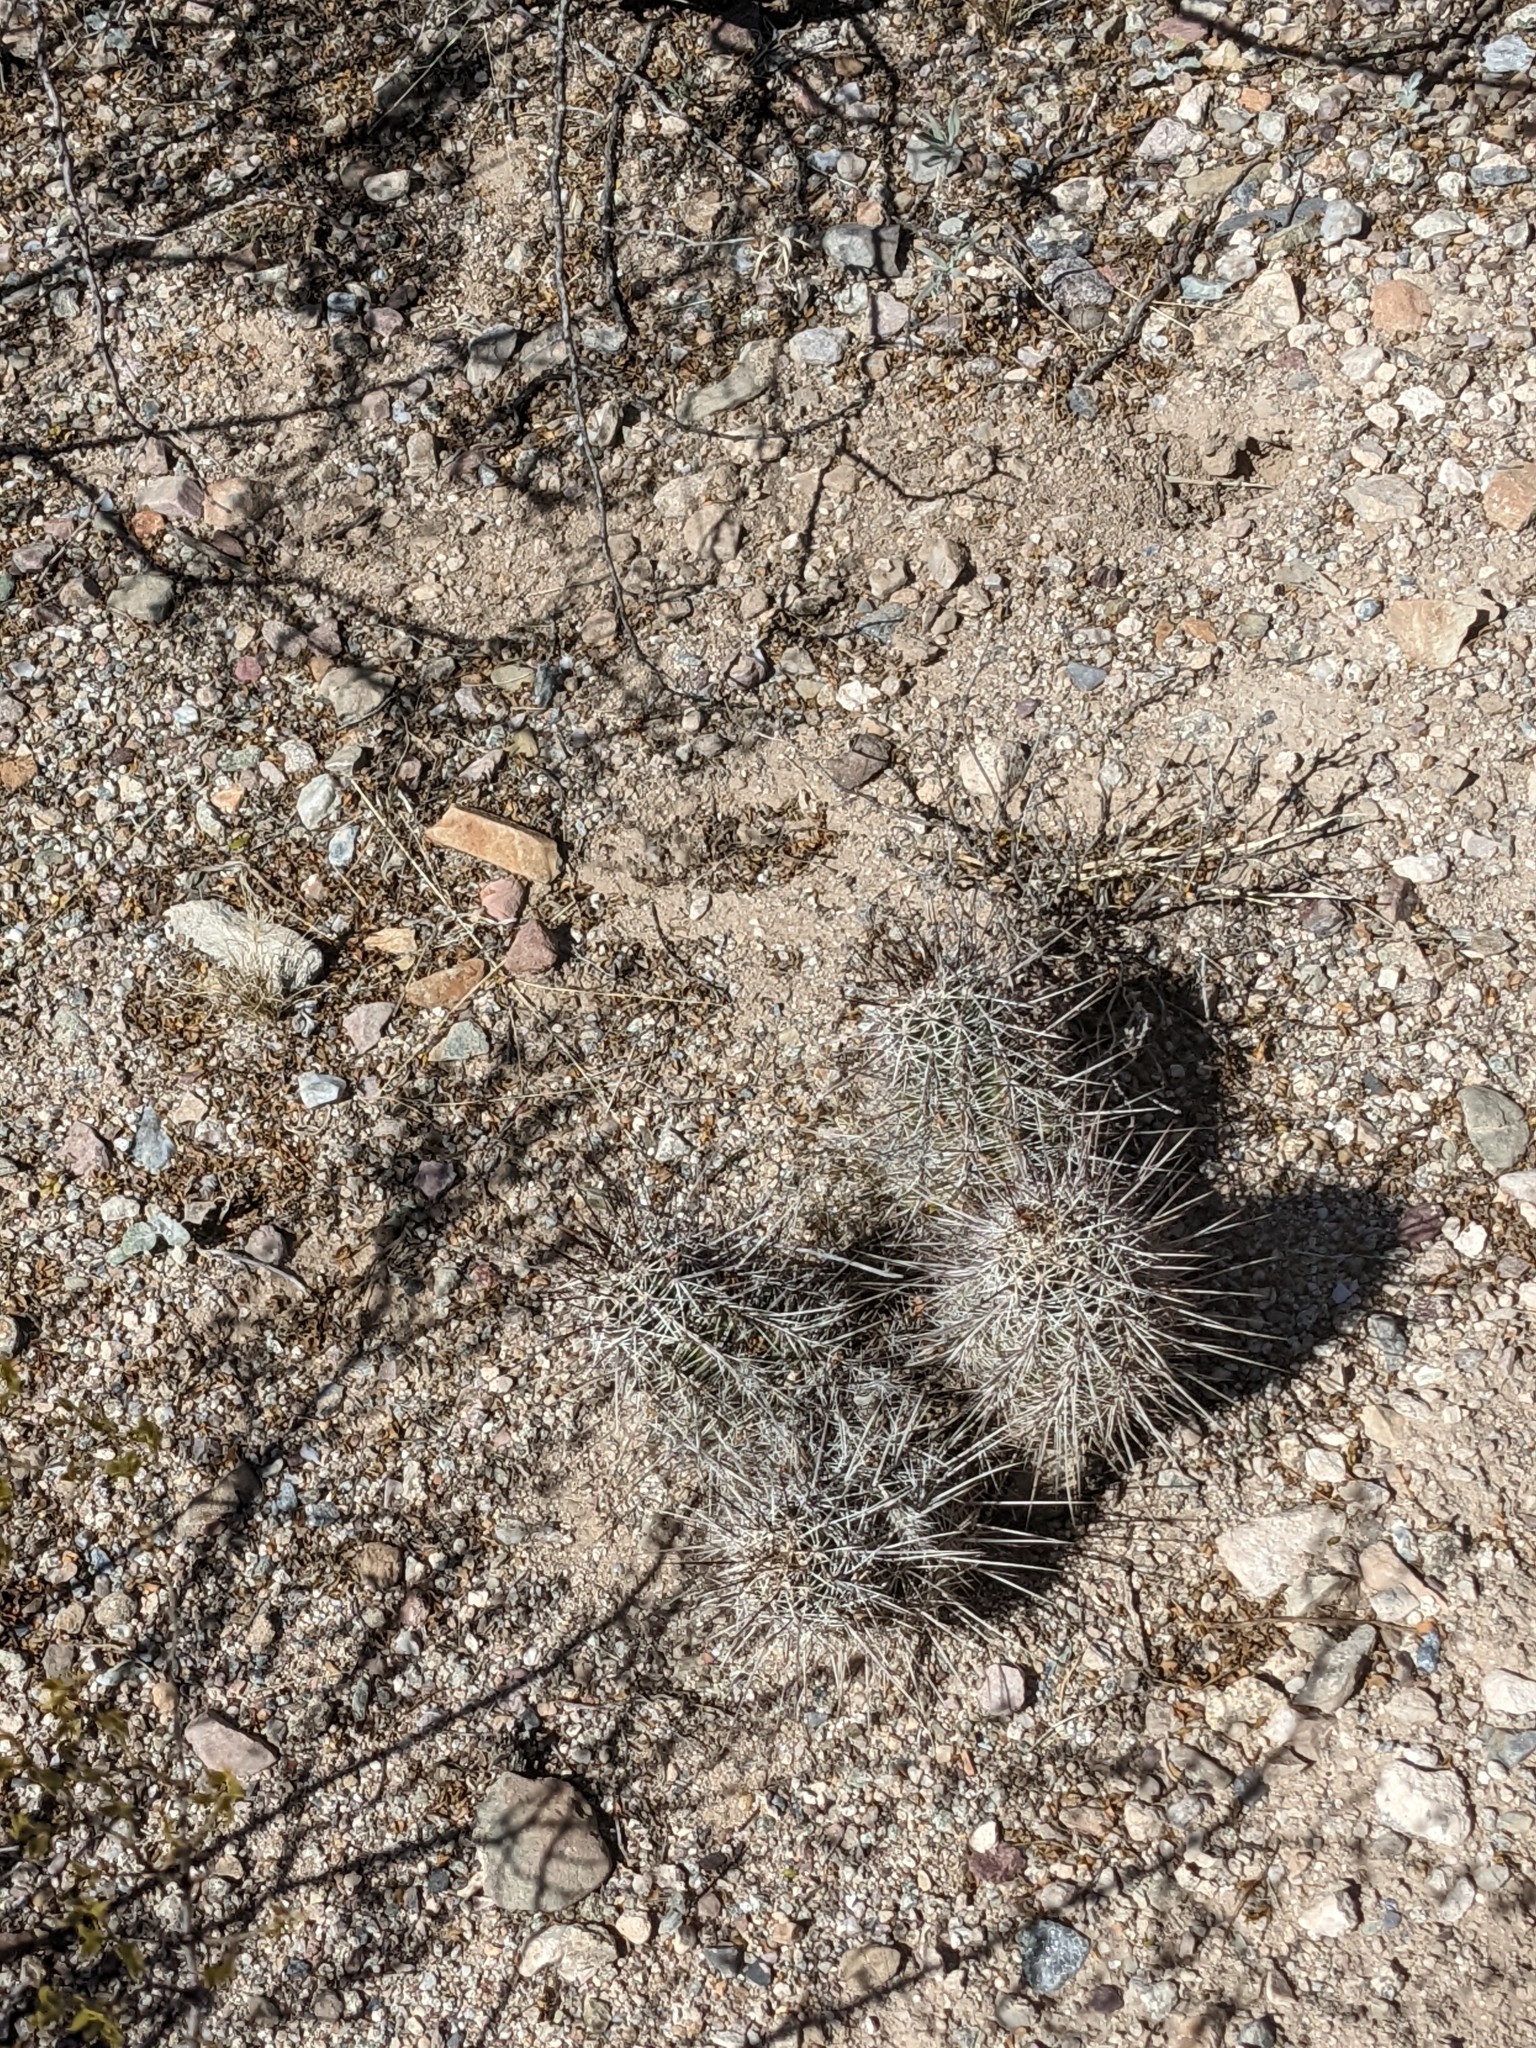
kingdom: Plantae
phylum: Tracheophyta
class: Magnoliopsida
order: Caryophyllales
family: Cactaceae
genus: Echinocereus
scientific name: Echinocereus fasciculatus
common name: Bundle hedgehog
